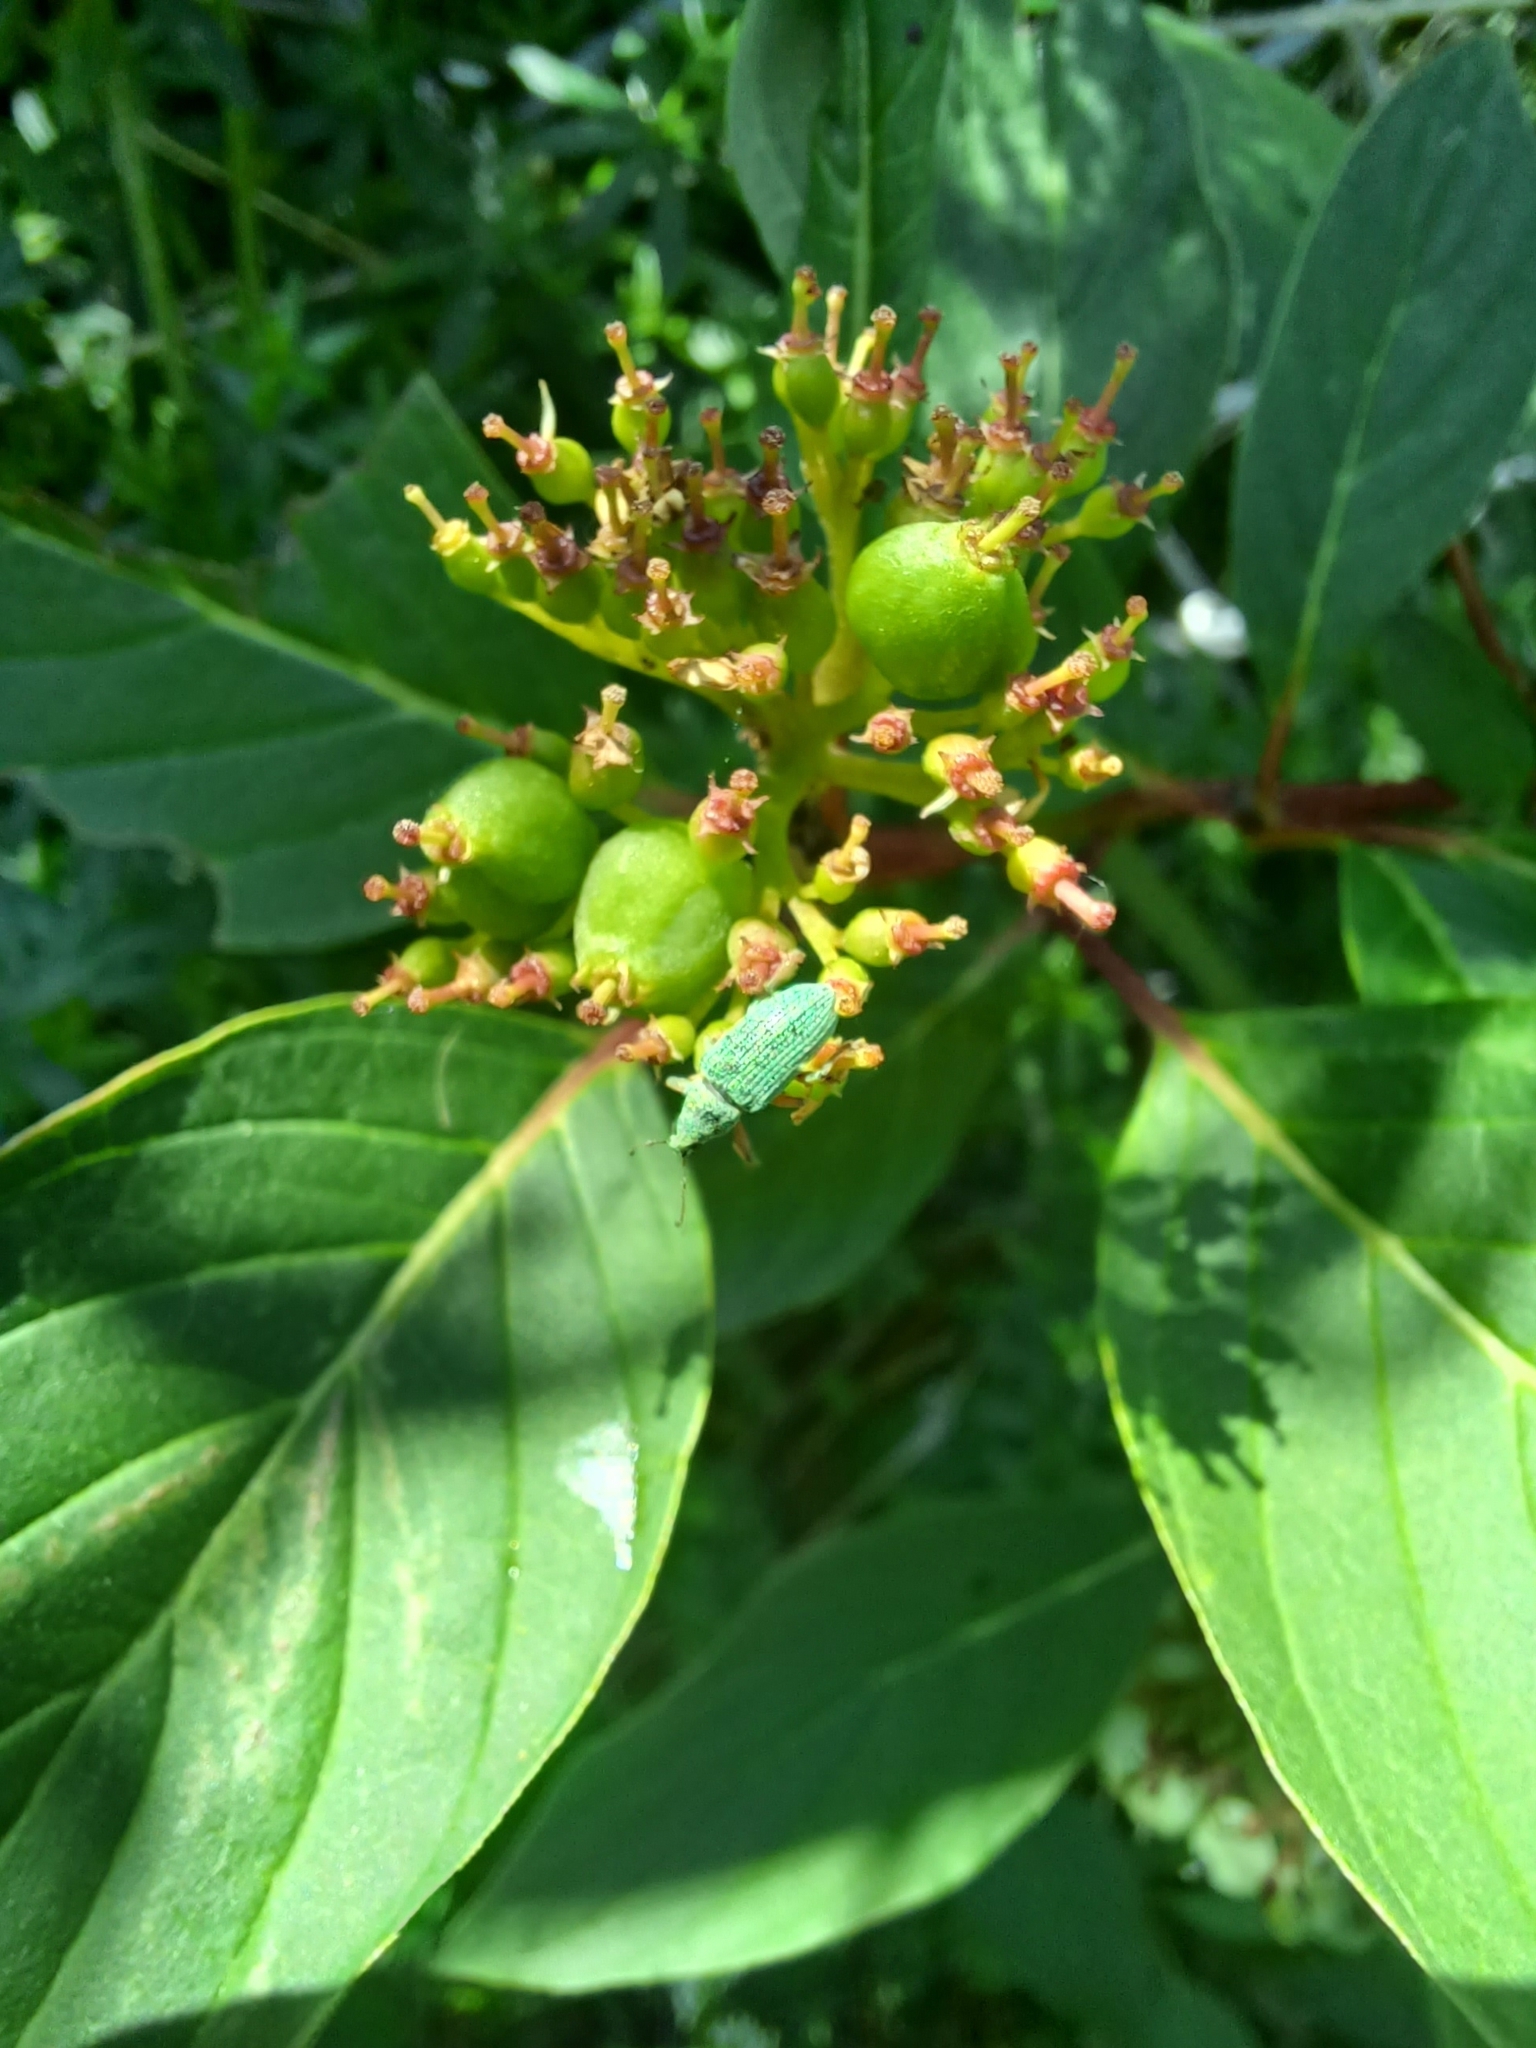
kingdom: Animalia
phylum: Arthropoda
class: Insecta
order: Coleoptera
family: Curculionidae
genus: Polydrusus
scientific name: Polydrusus formosus
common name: Weevil
